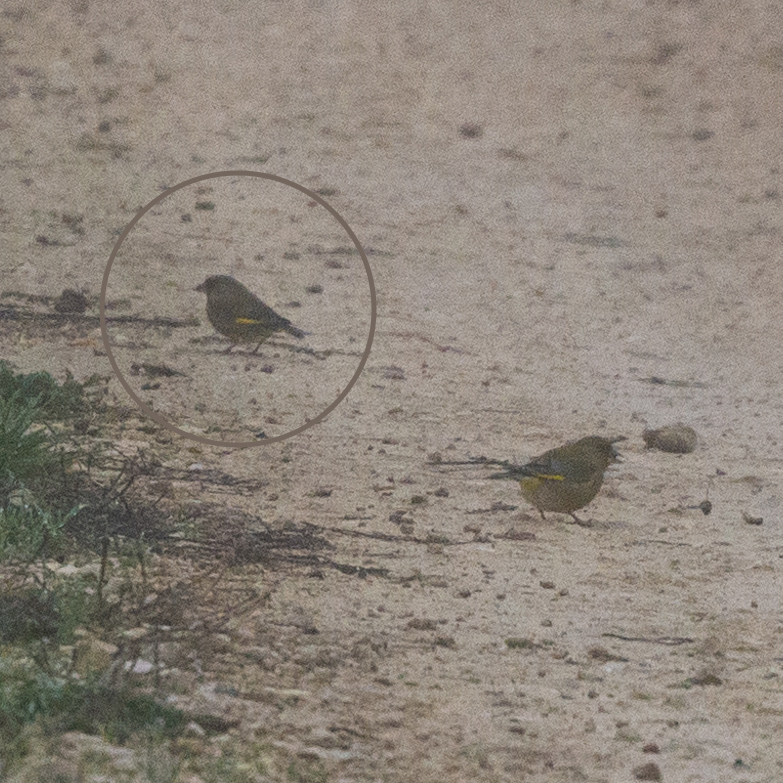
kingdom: Plantae
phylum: Tracheophyta
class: Liliopsida
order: Poales
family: Poaceae
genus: Chloris
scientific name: Chloris chloris
